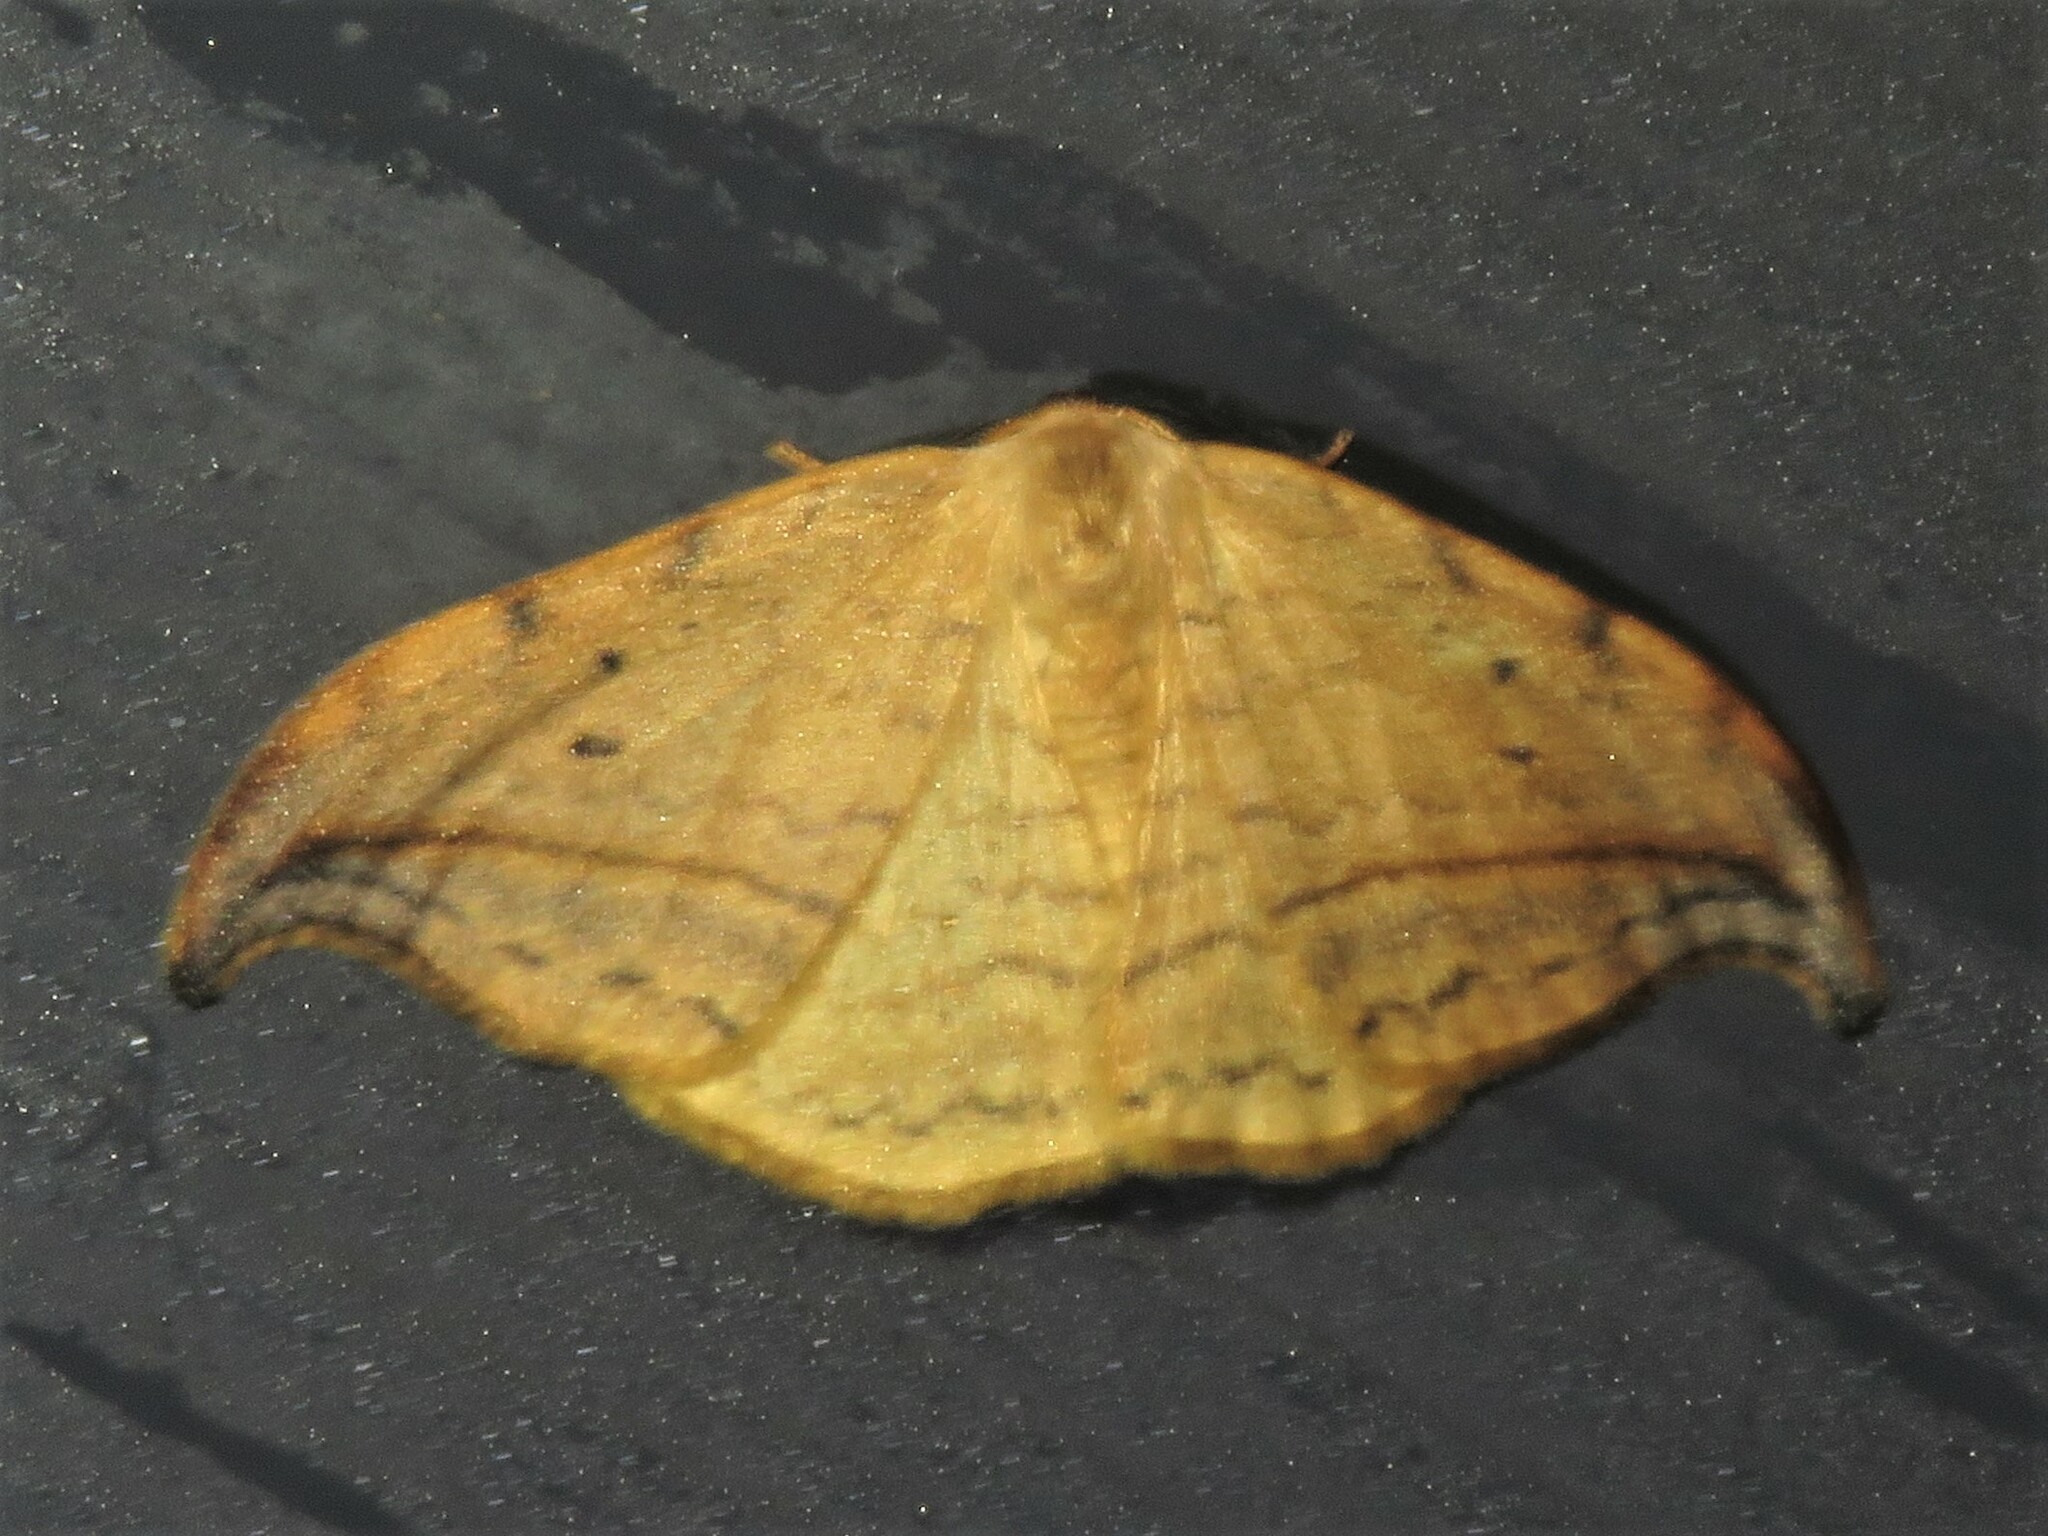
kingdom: Animalia
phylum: Arthropoda
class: Insecta
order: Lepidoptera
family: Drepanidae
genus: Drepana
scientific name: Drepana arcuata
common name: Arched hooktip moth
